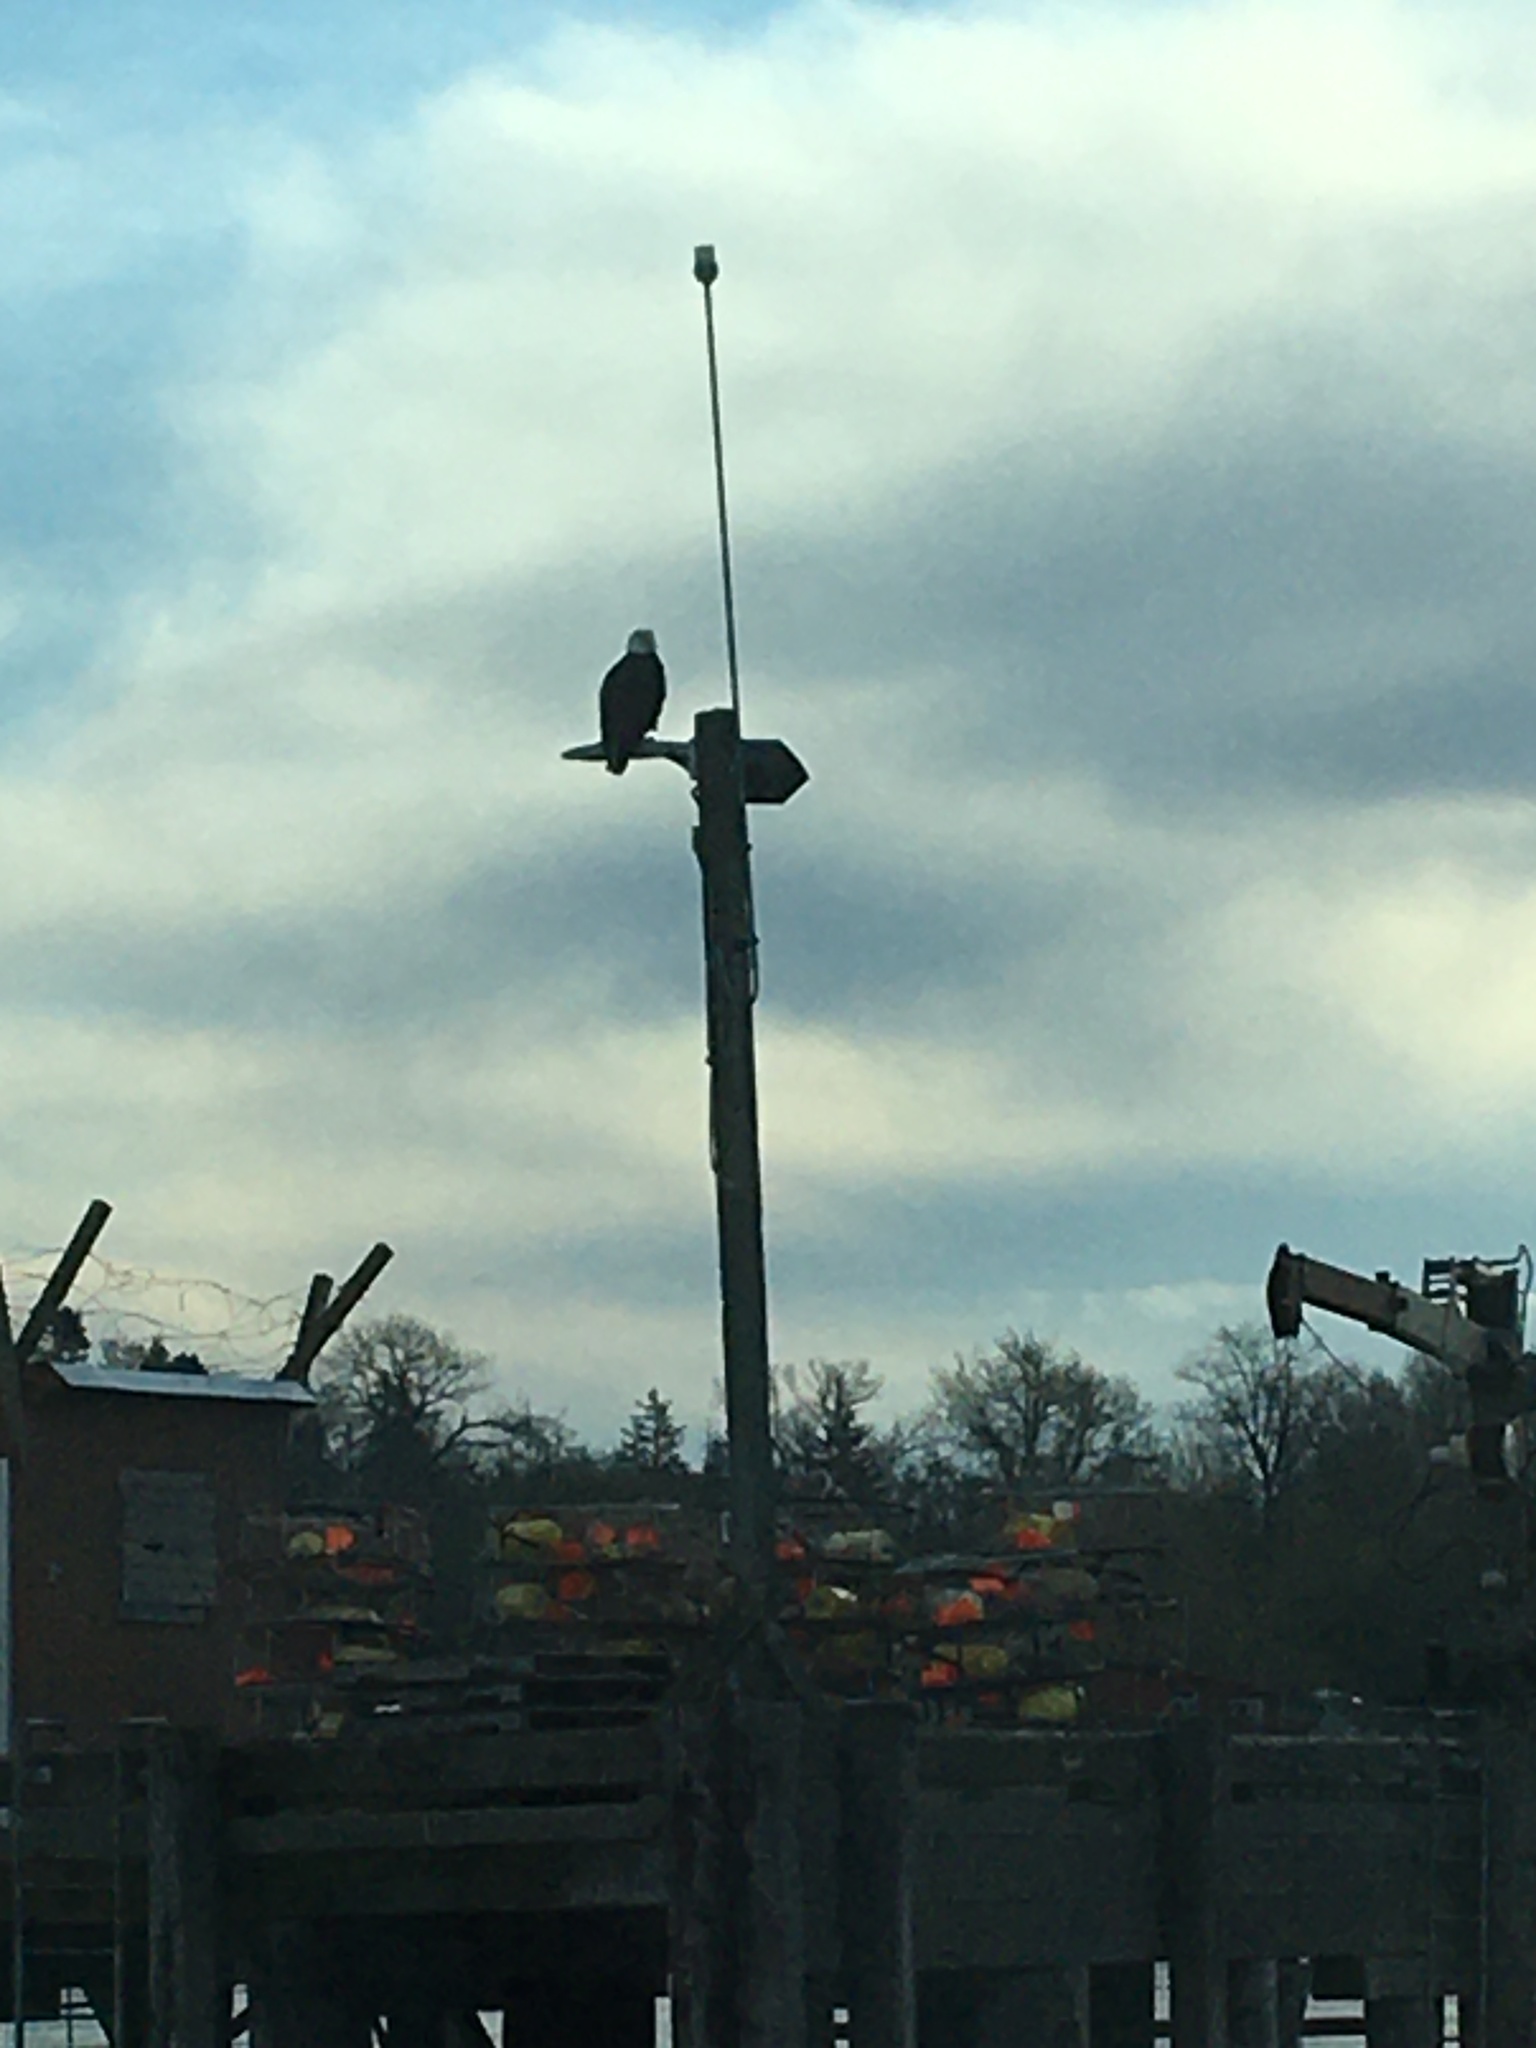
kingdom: Animalia
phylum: Chordata
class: Aves
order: Accipitriformes
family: Accipitridae
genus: Haliaeetus
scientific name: Haliaeetus leucocephalus
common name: Bald eagle
